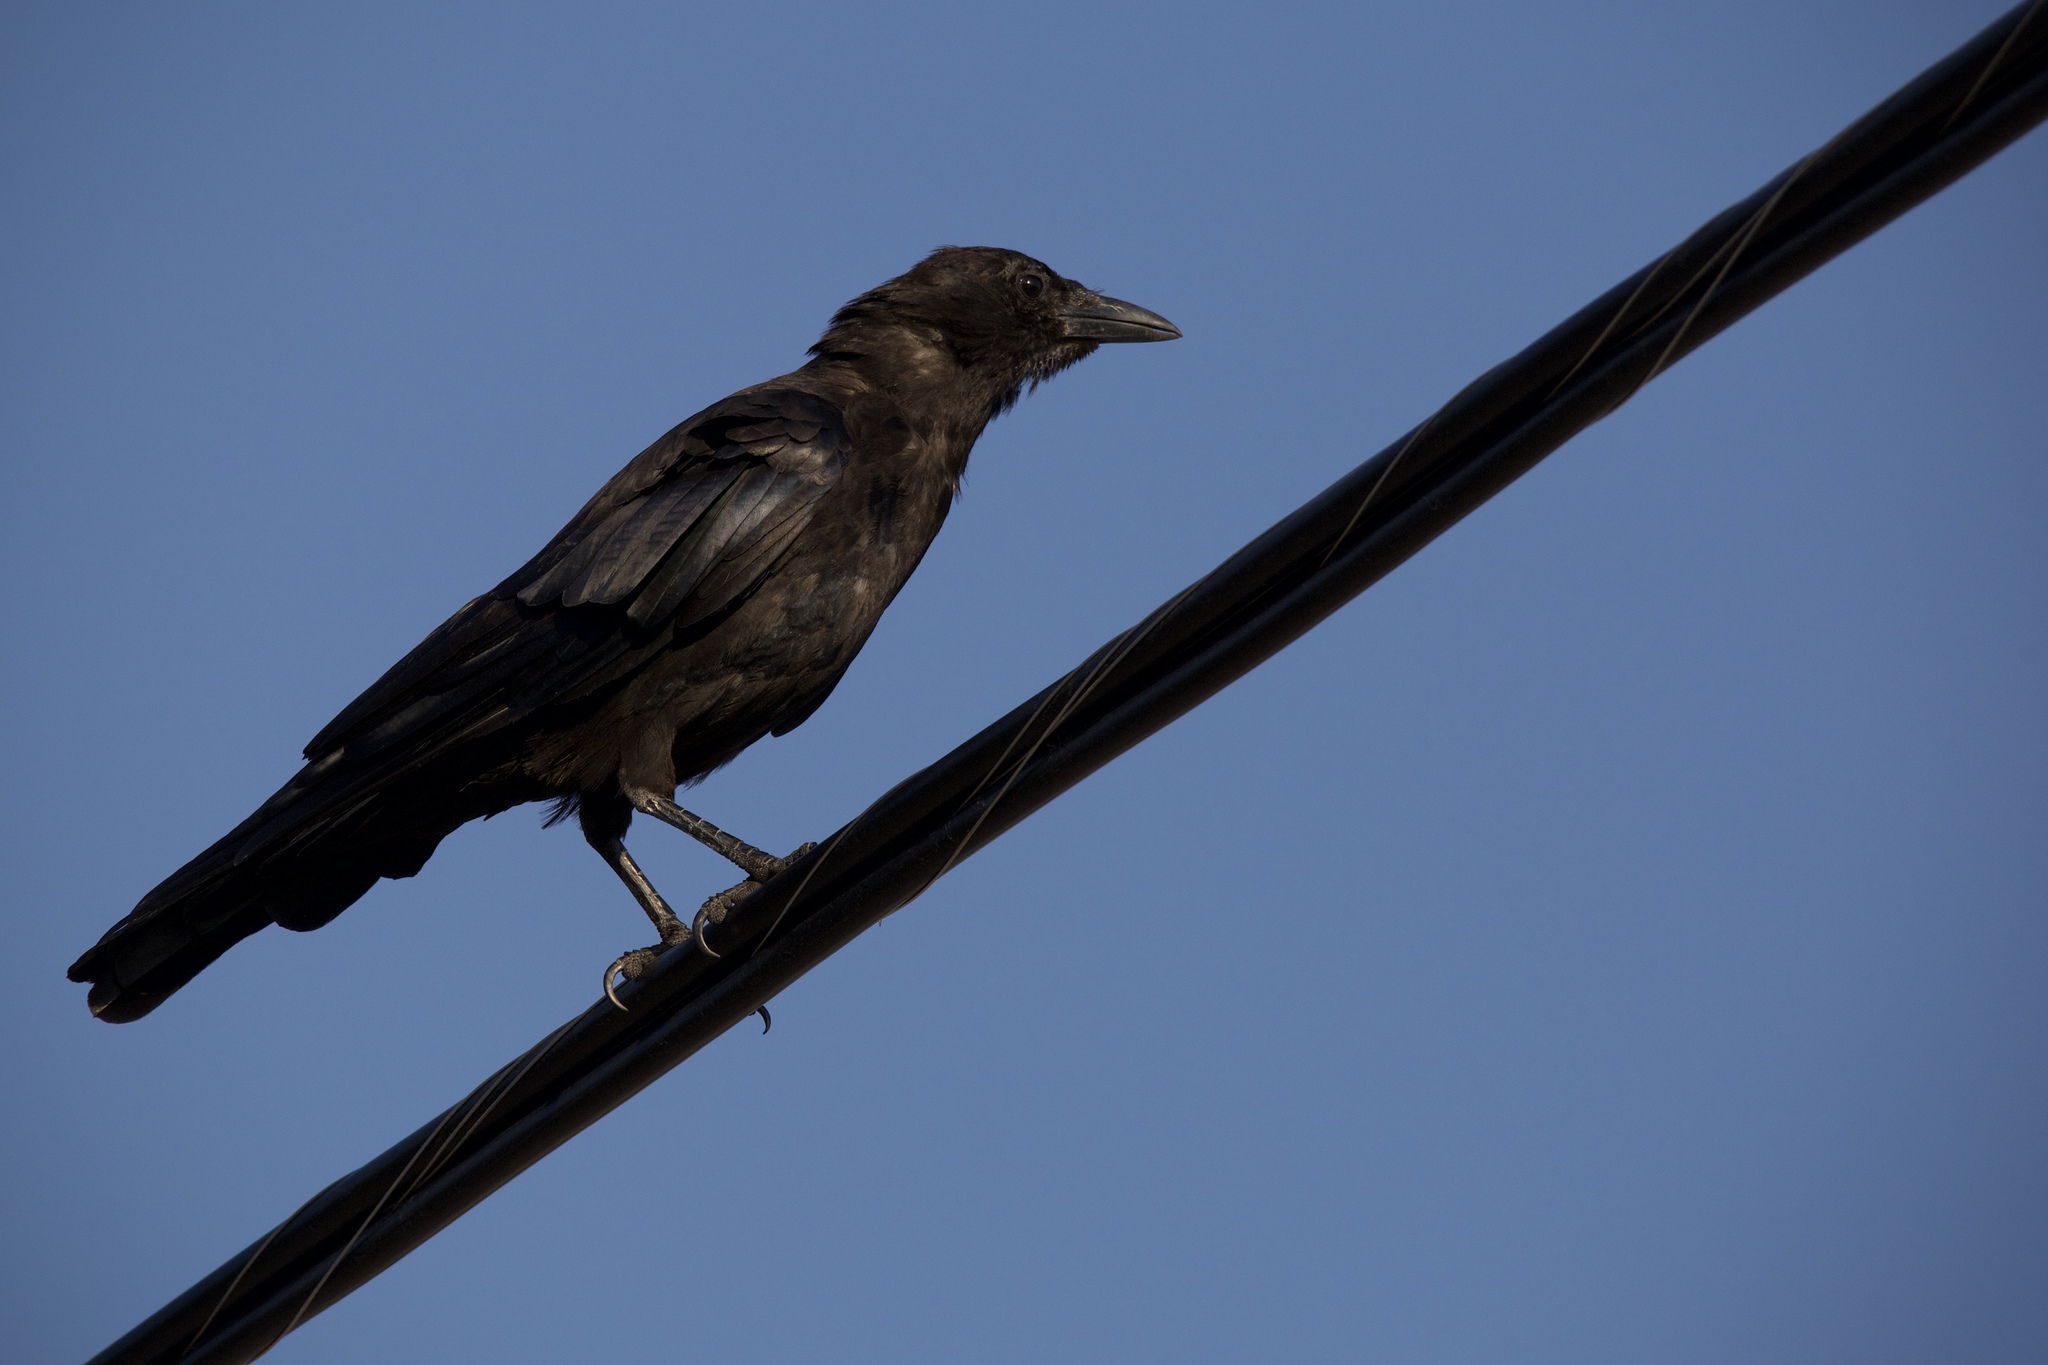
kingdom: Animalia
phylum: Chordata
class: Aves
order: Passeriformes
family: Corvidae
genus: Corvus
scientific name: Corvus brachyrhynchos
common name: American crow
